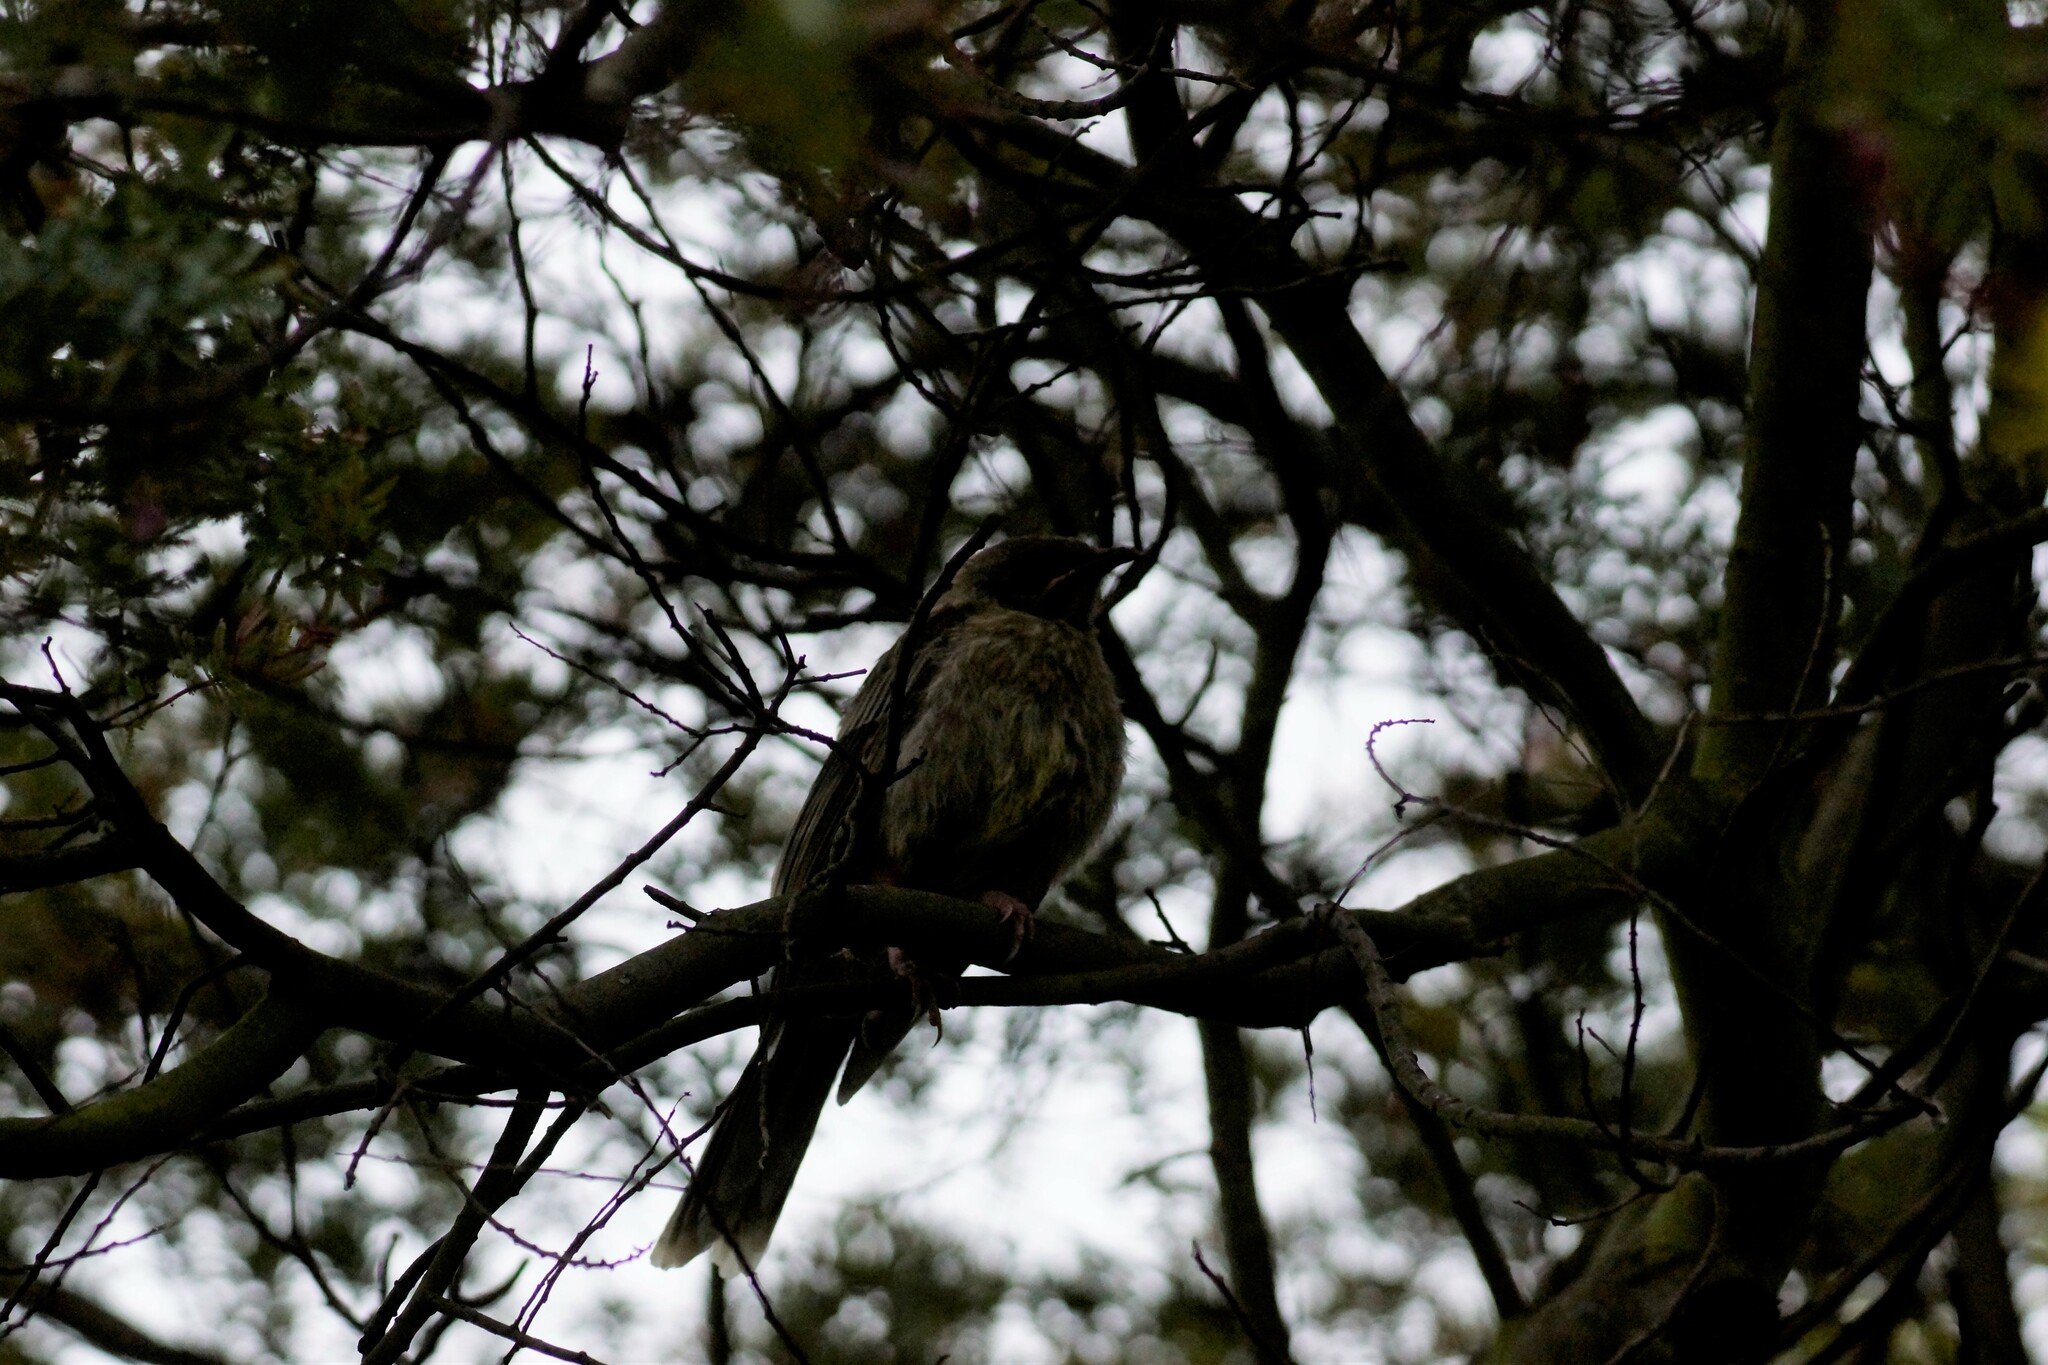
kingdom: Animalia
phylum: Chordata
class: Aves
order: Passeriformes
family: Meliphagidae
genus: Anthochaera
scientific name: Anthochaera carunculata
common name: Red wattlebird
